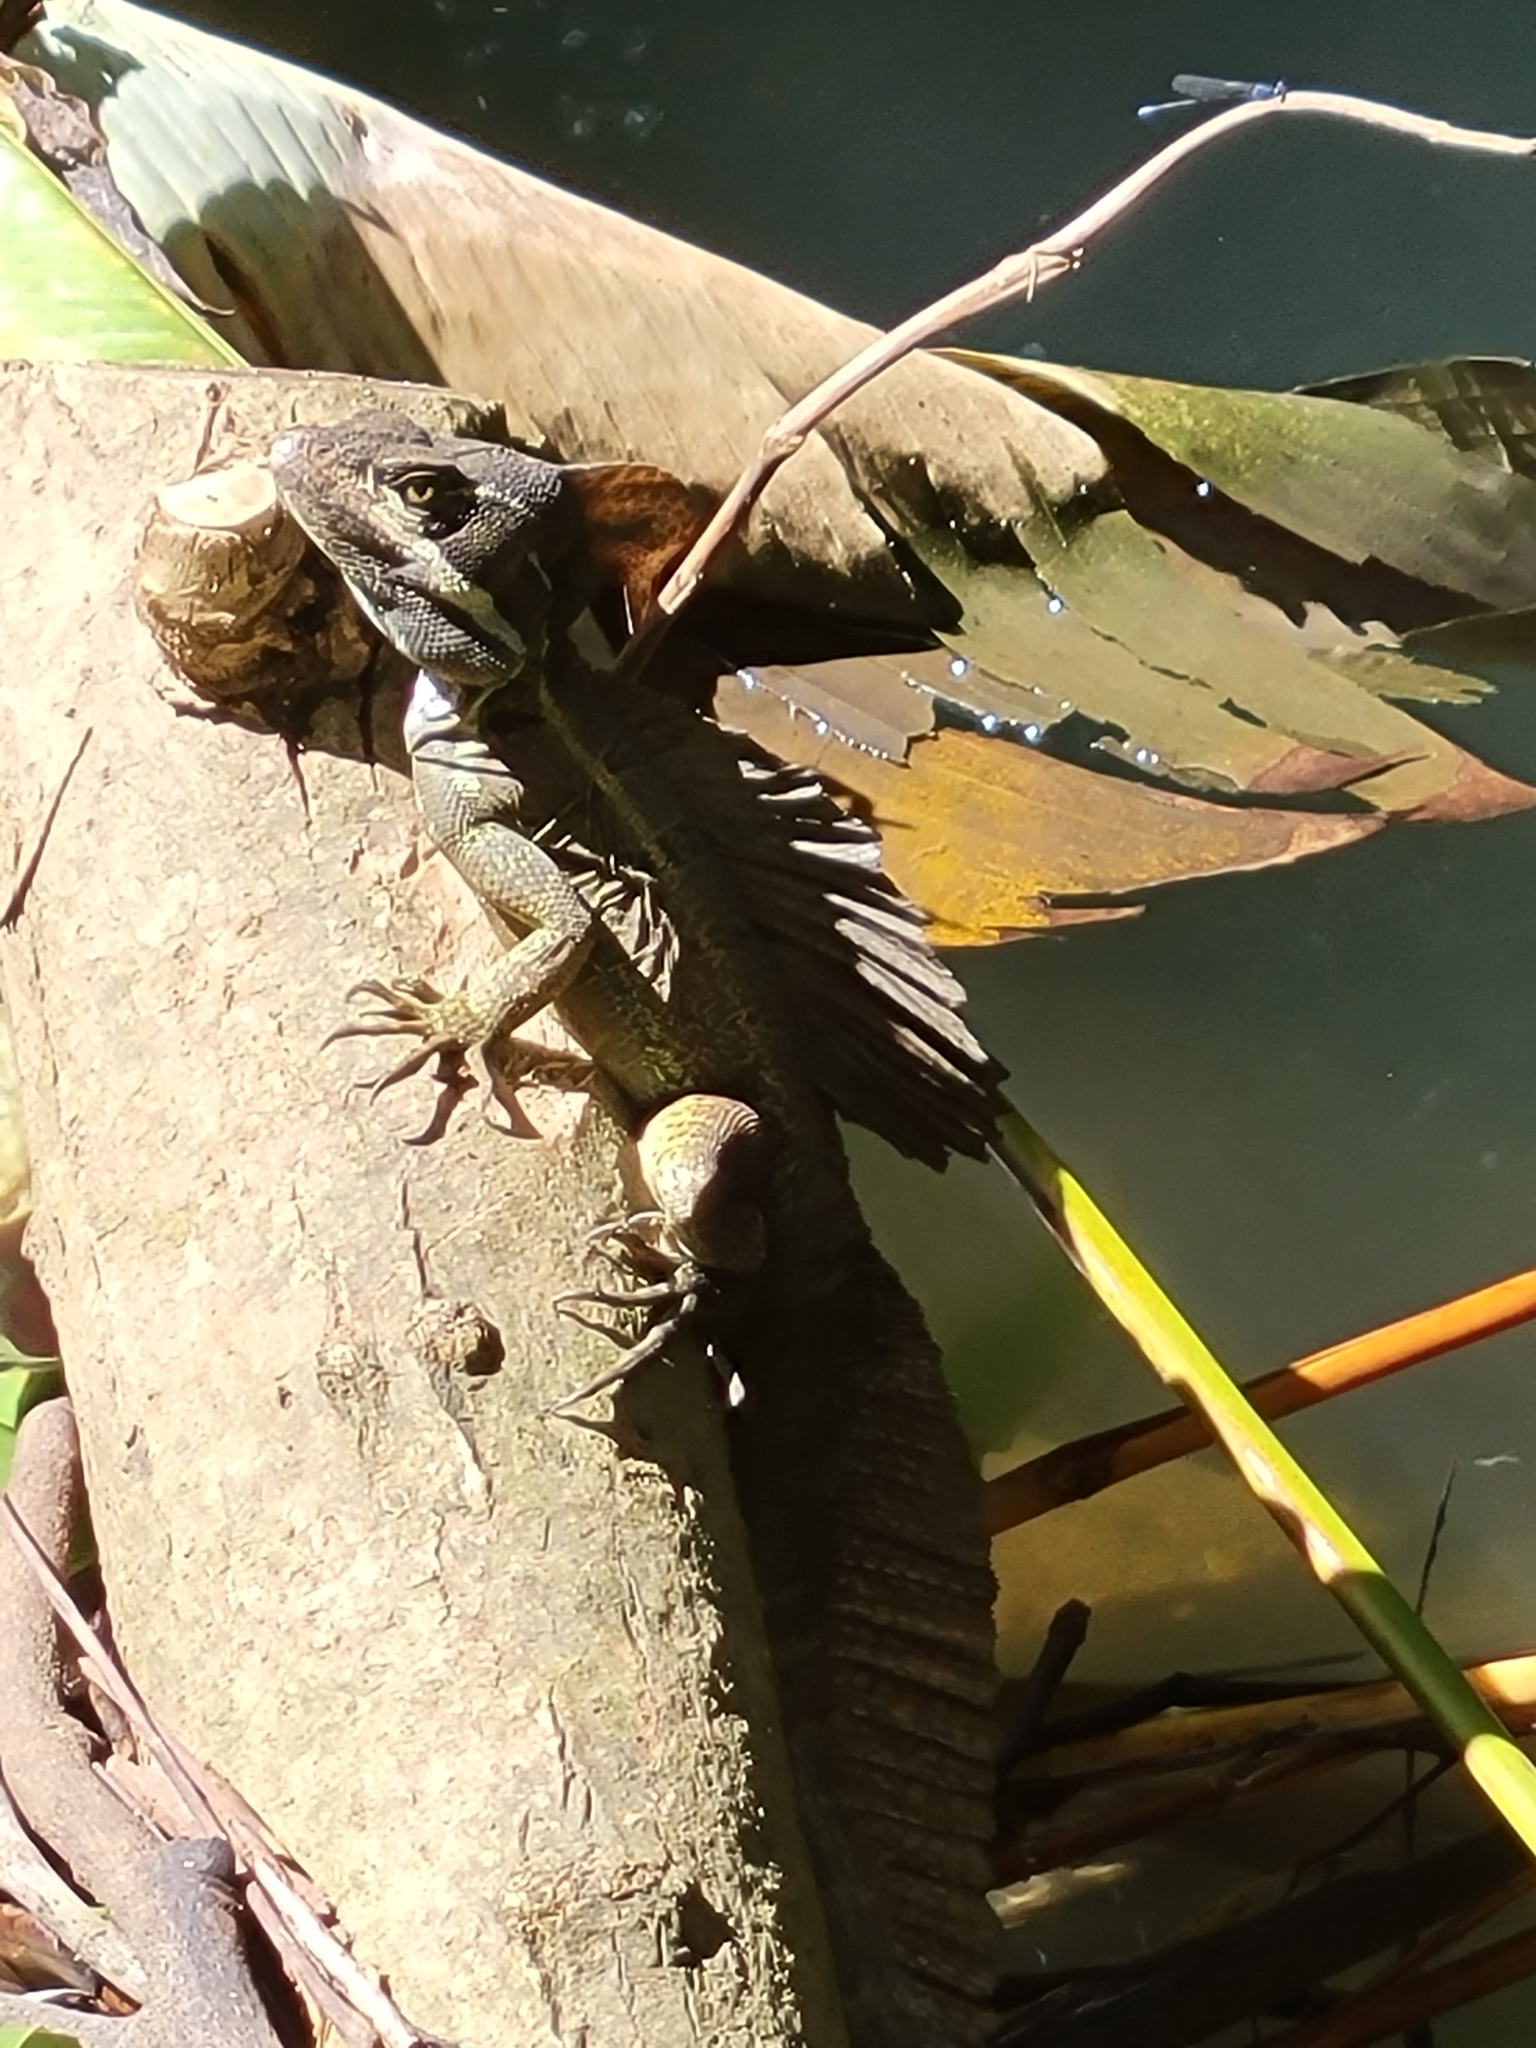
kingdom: Animalia
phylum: Chordata
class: Squamata
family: Corytophanidae
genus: Basiliscus
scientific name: Basiliscus basiliscus
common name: Common basilisk
